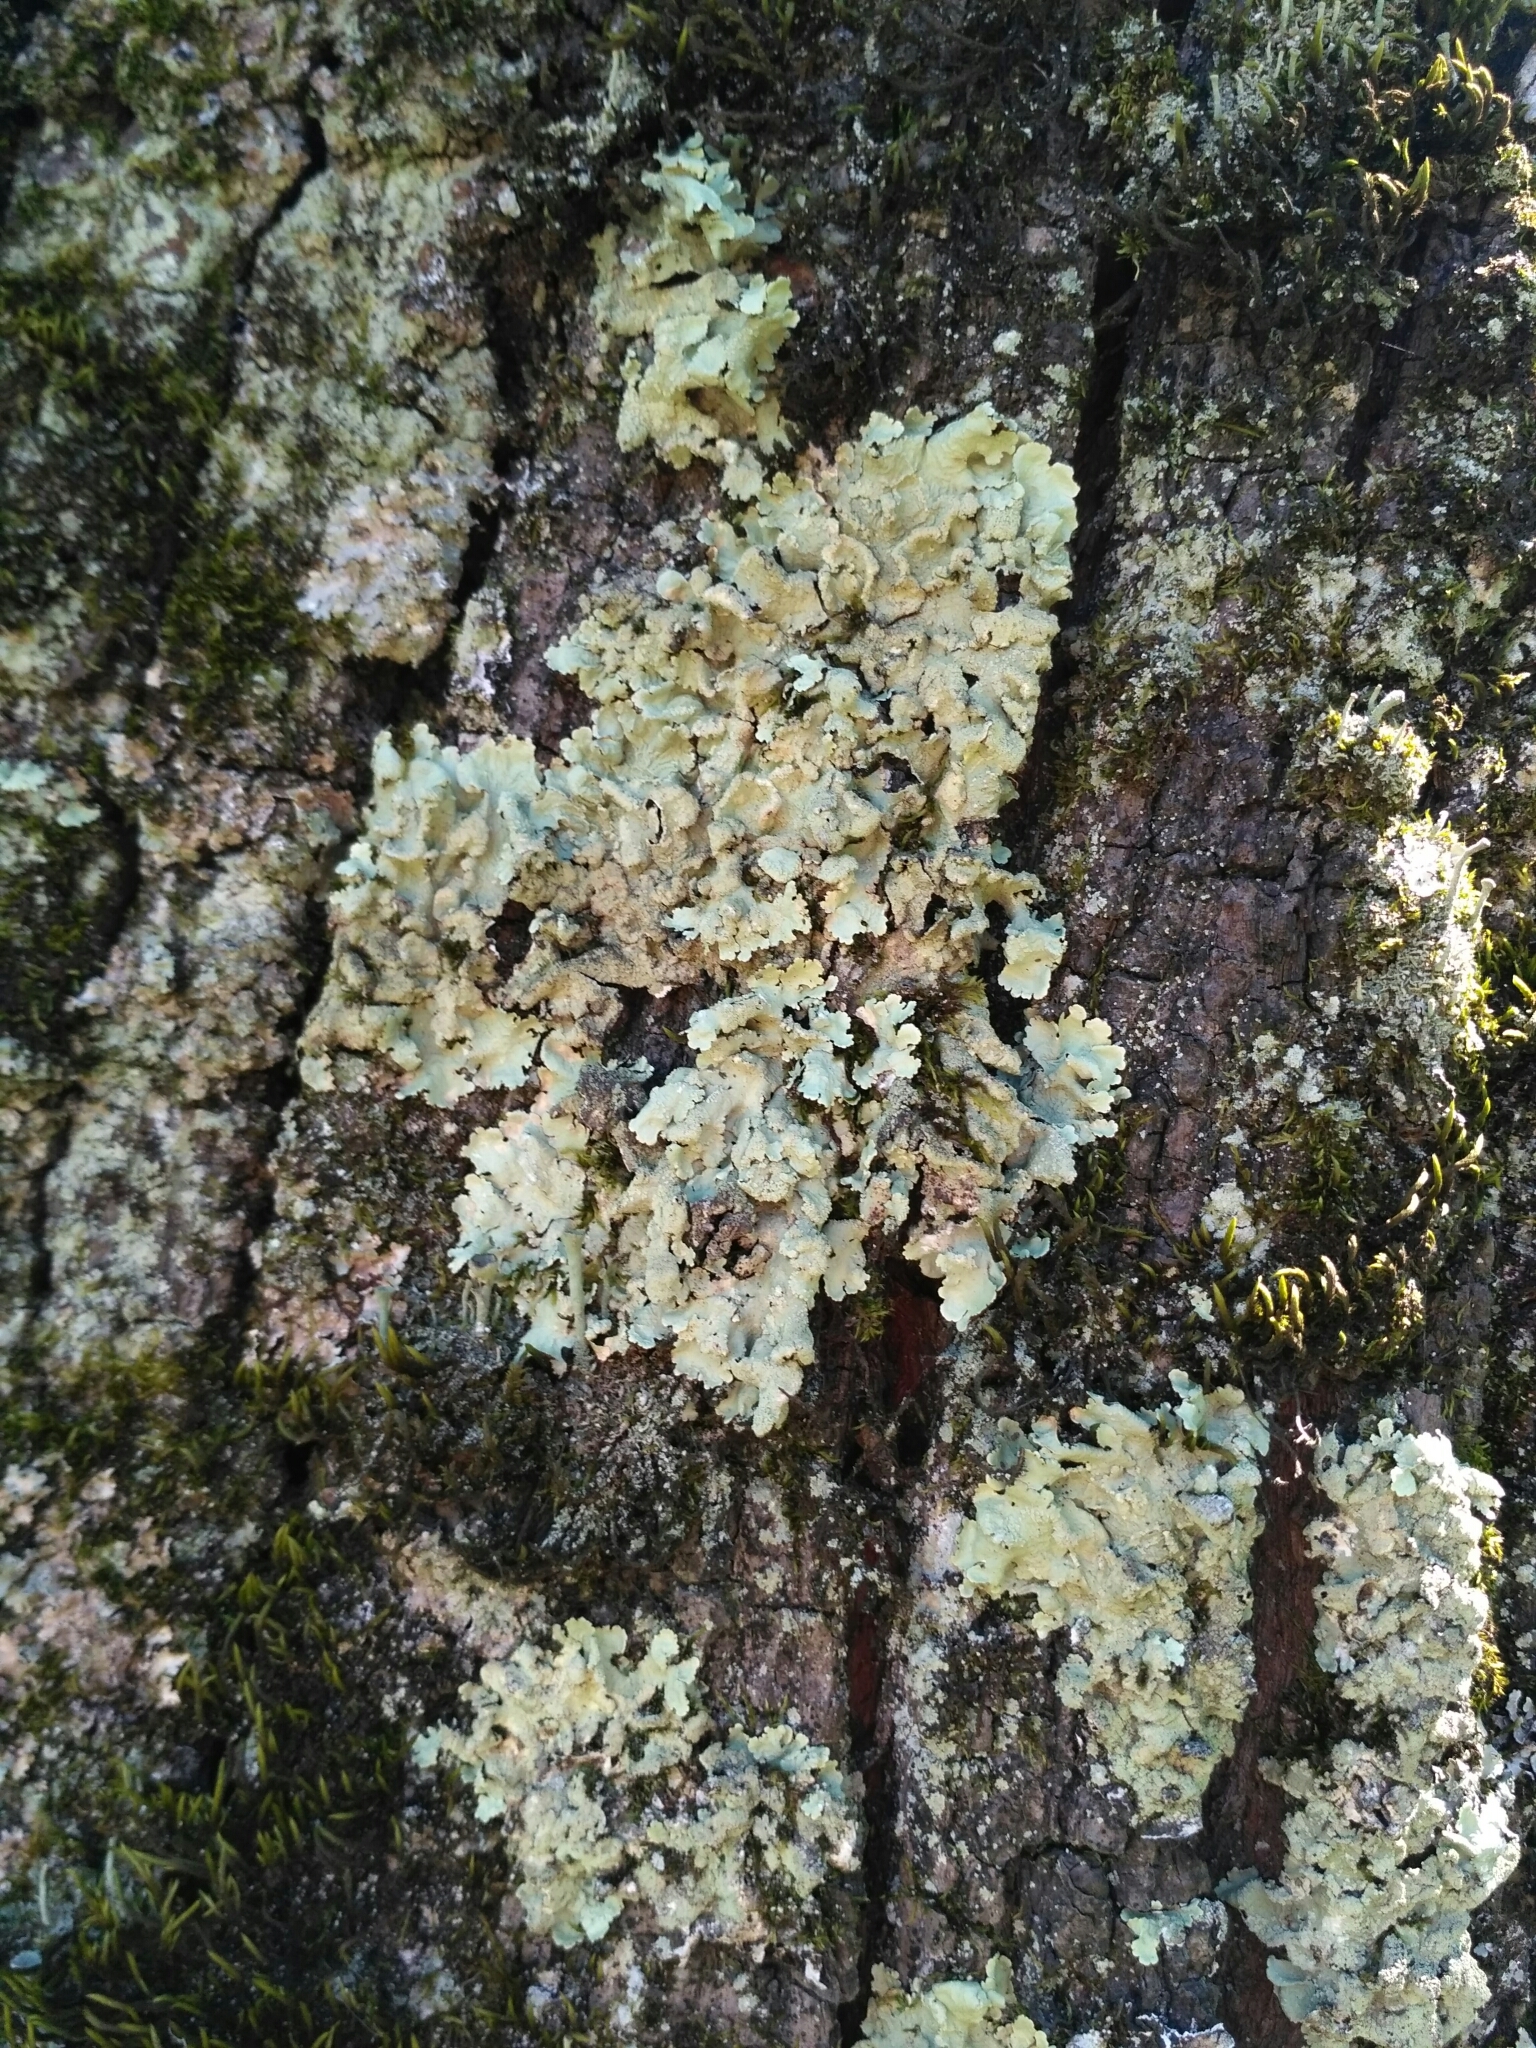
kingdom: Fungi
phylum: Ascomycota
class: Lecanoromycetes
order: Lecanorales
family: Parmeliaceae
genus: Flavoparmelia
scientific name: Flavoparmelia caperata
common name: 40-mile per hour lichen
